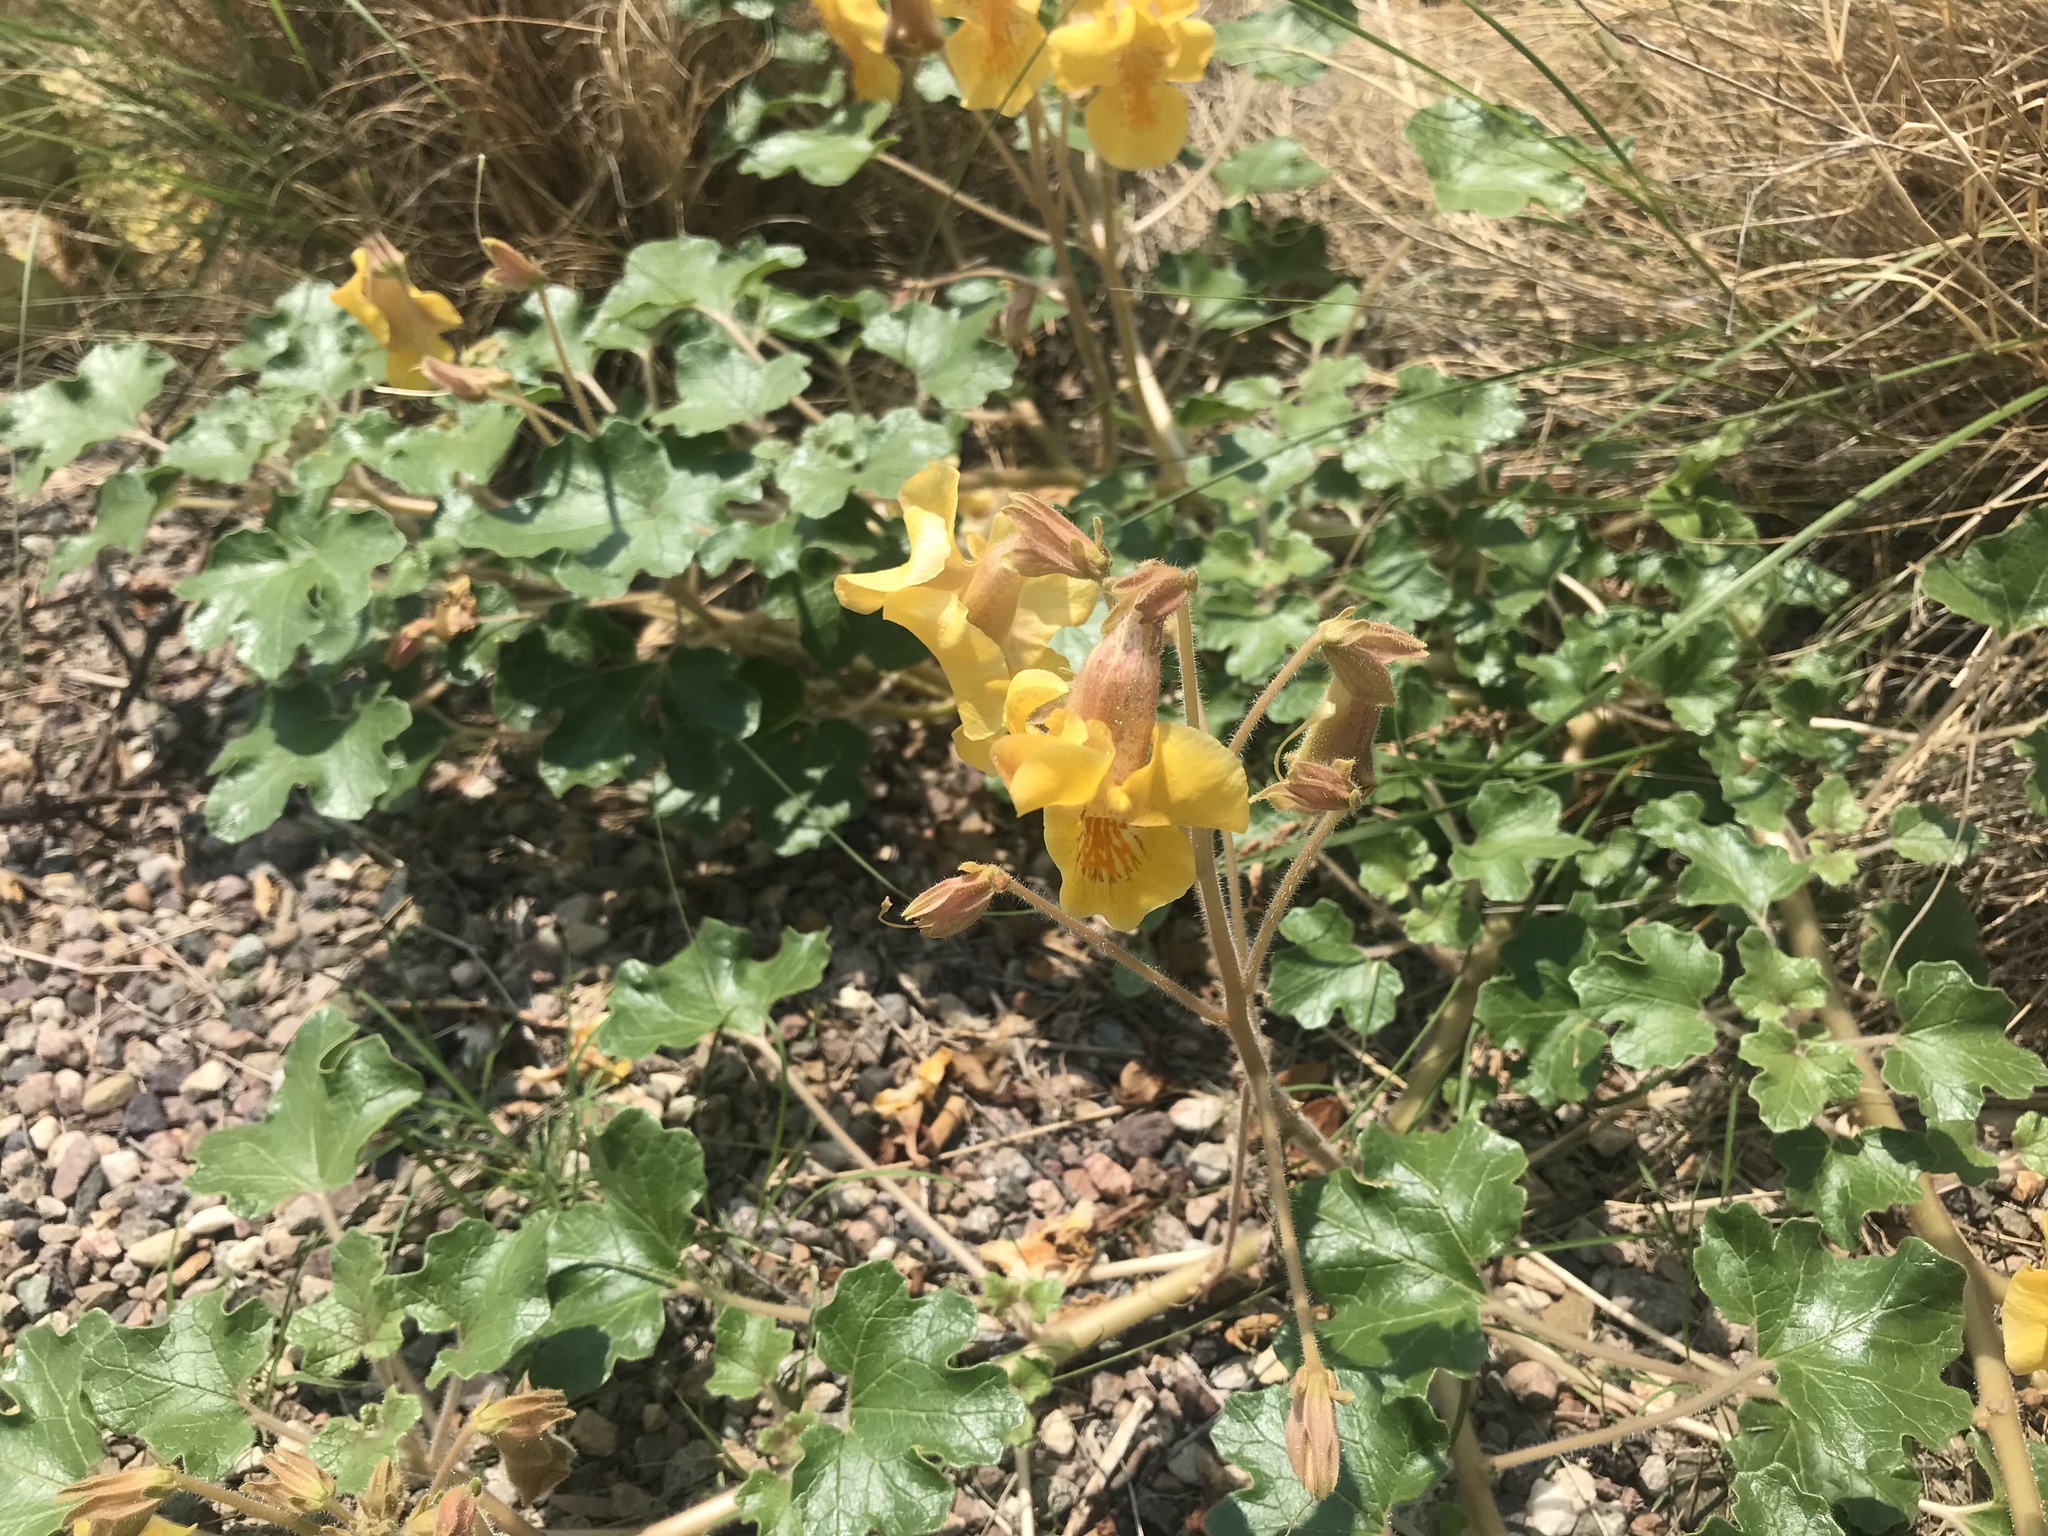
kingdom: Plantae
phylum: Tracheophyta
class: Magnoliopsida
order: Lamiales
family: Martyniaceae
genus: Proboscidea
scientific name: Proboscidea althaeifolia
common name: Desert unicorn-plant
